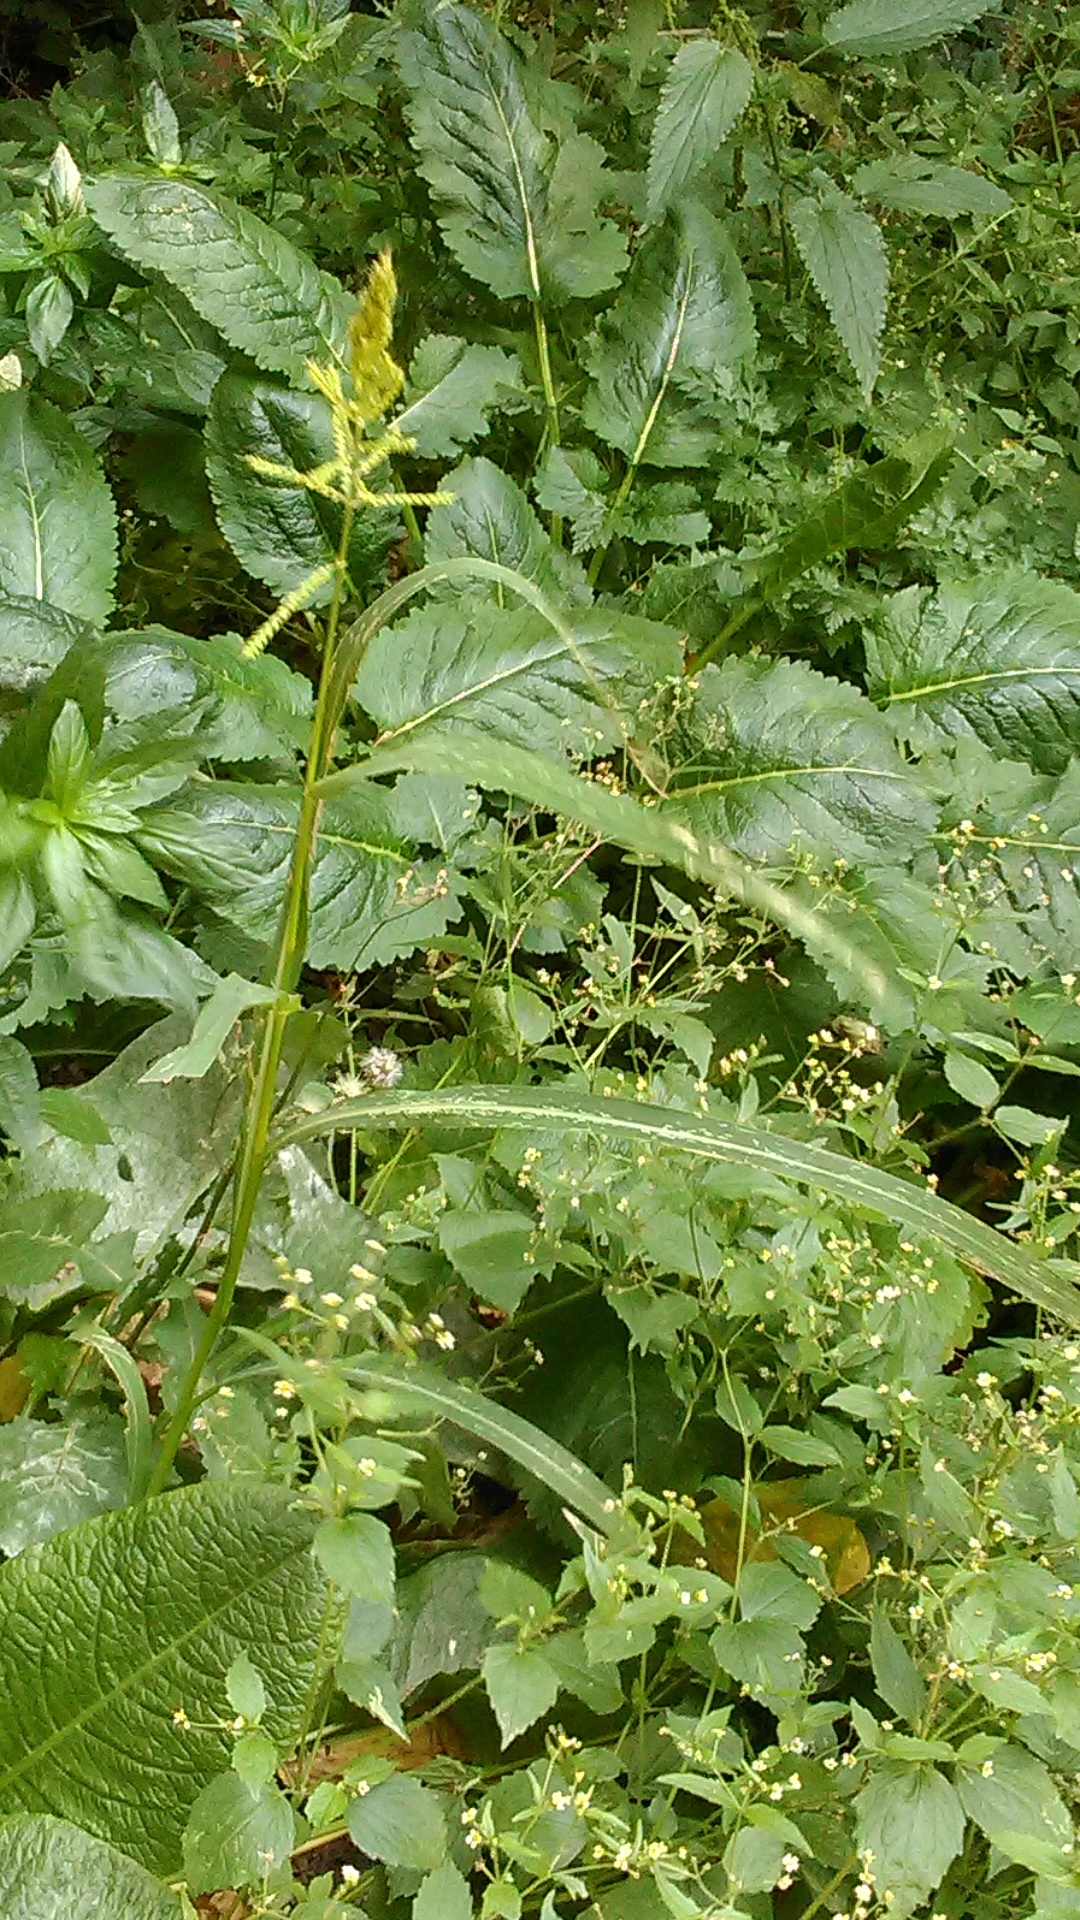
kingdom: Plantae
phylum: Tracheophyta
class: Liliopsida
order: Poales
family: Poaceae
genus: Echinochloa
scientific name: Echinochloa crus-galli
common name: Cockspur
